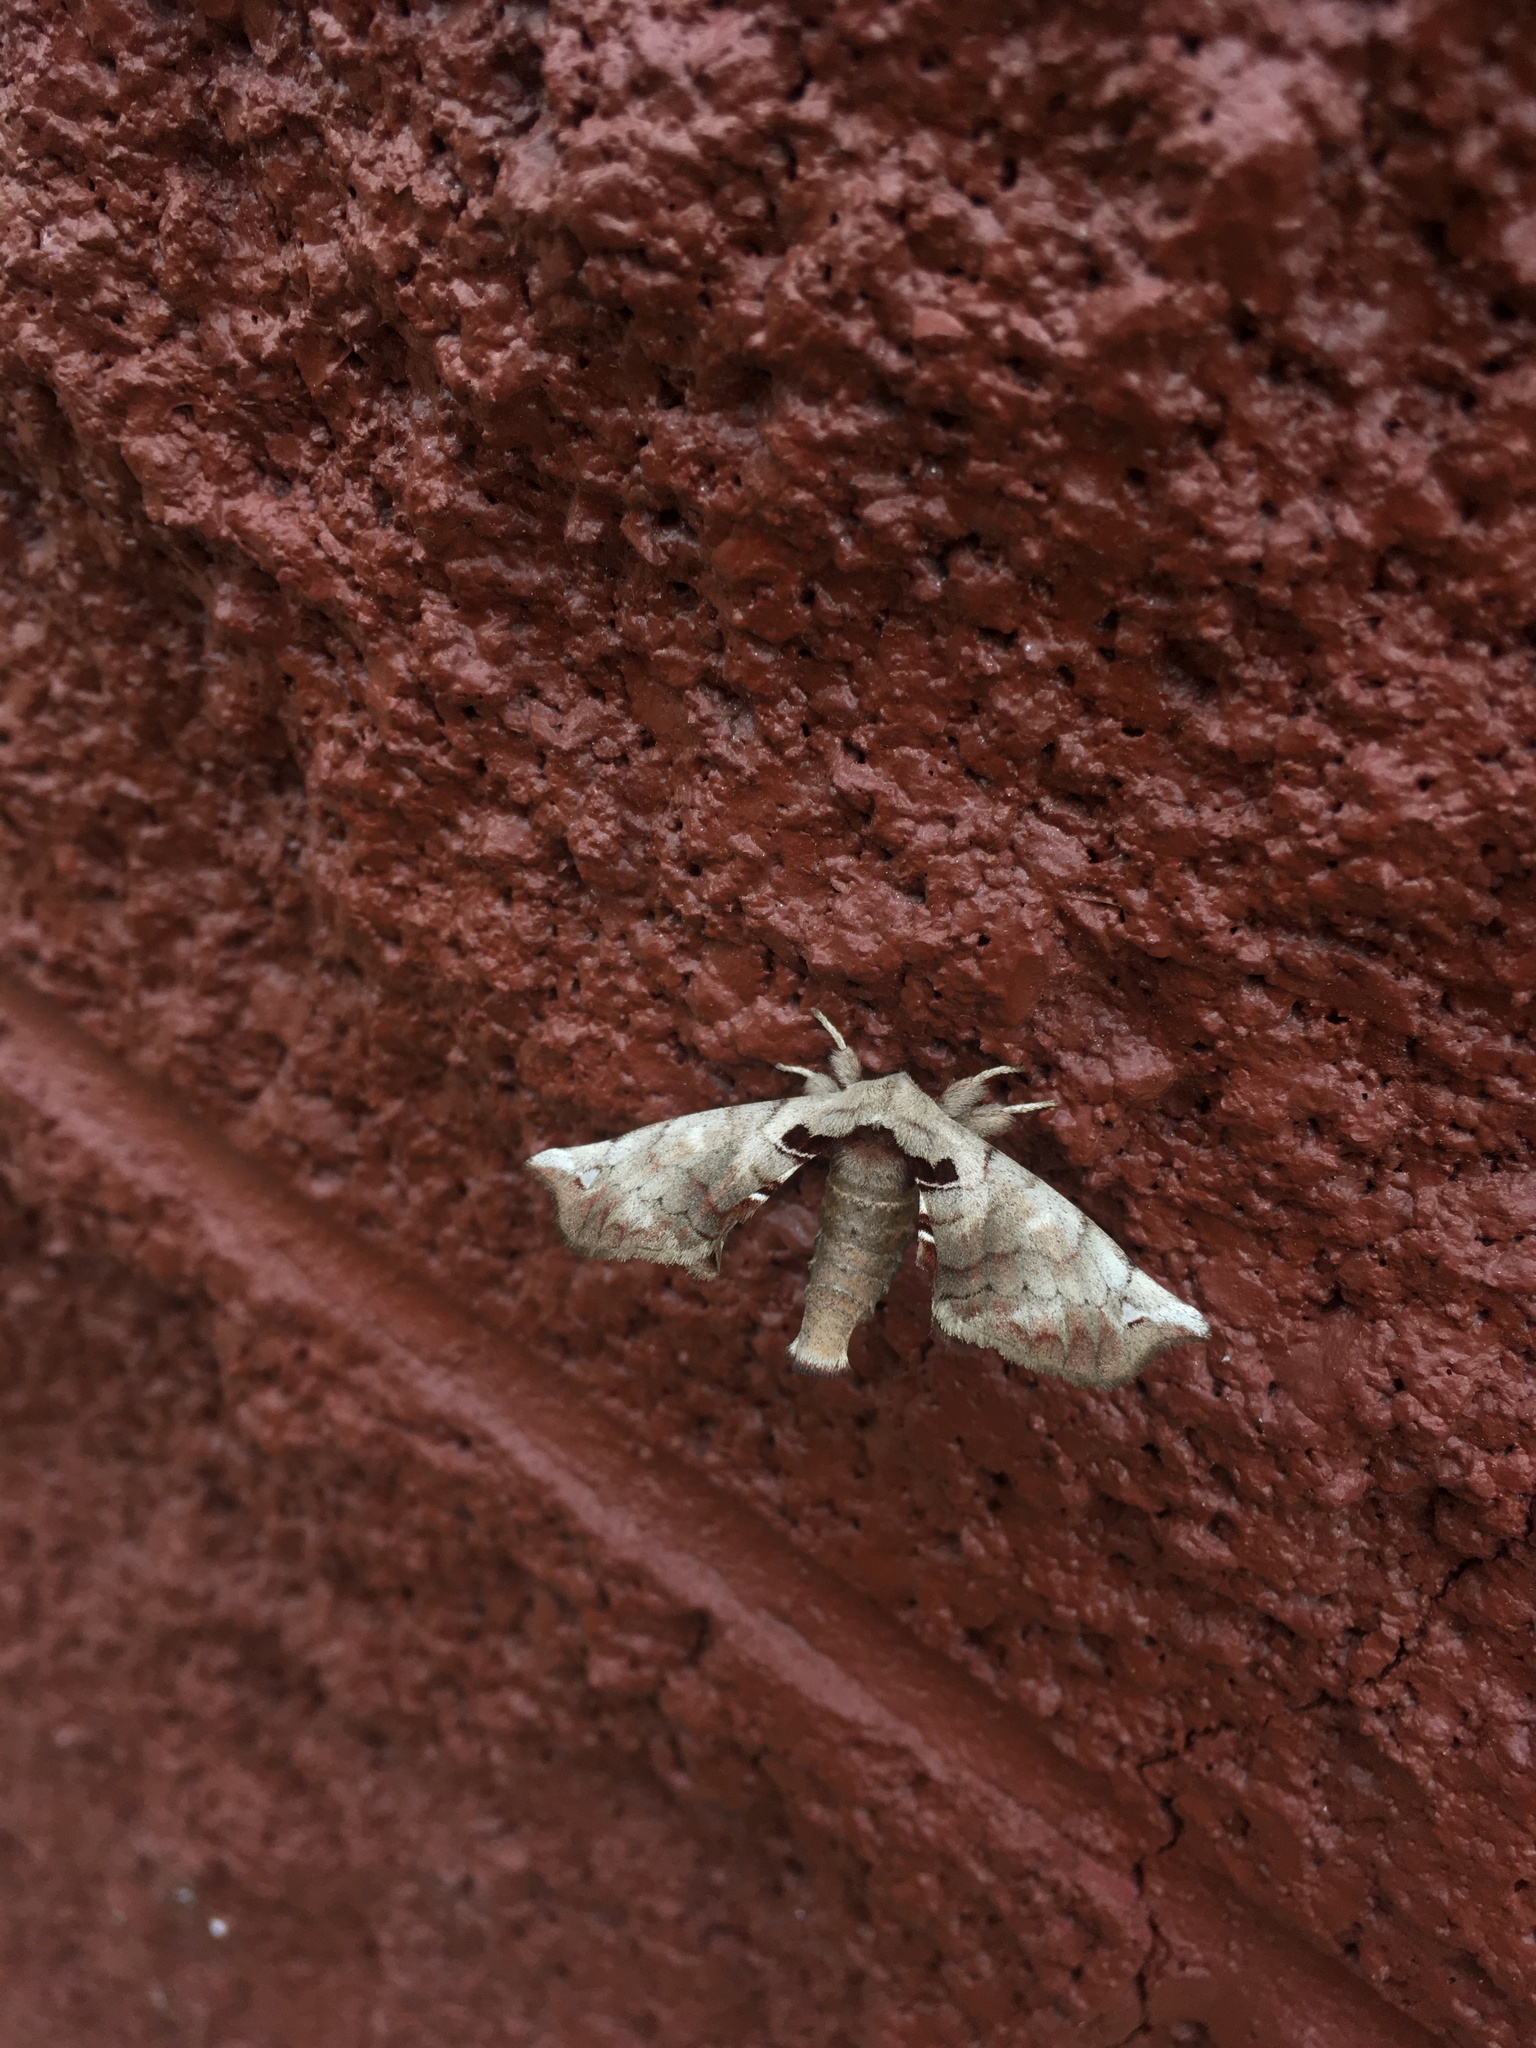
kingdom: Animalia
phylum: Arthropoda
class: Insecta
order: Lepidoptera
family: Apatelodidae
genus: Hygrochroa
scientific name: Hygrochroa Apatelodes torrefacta
